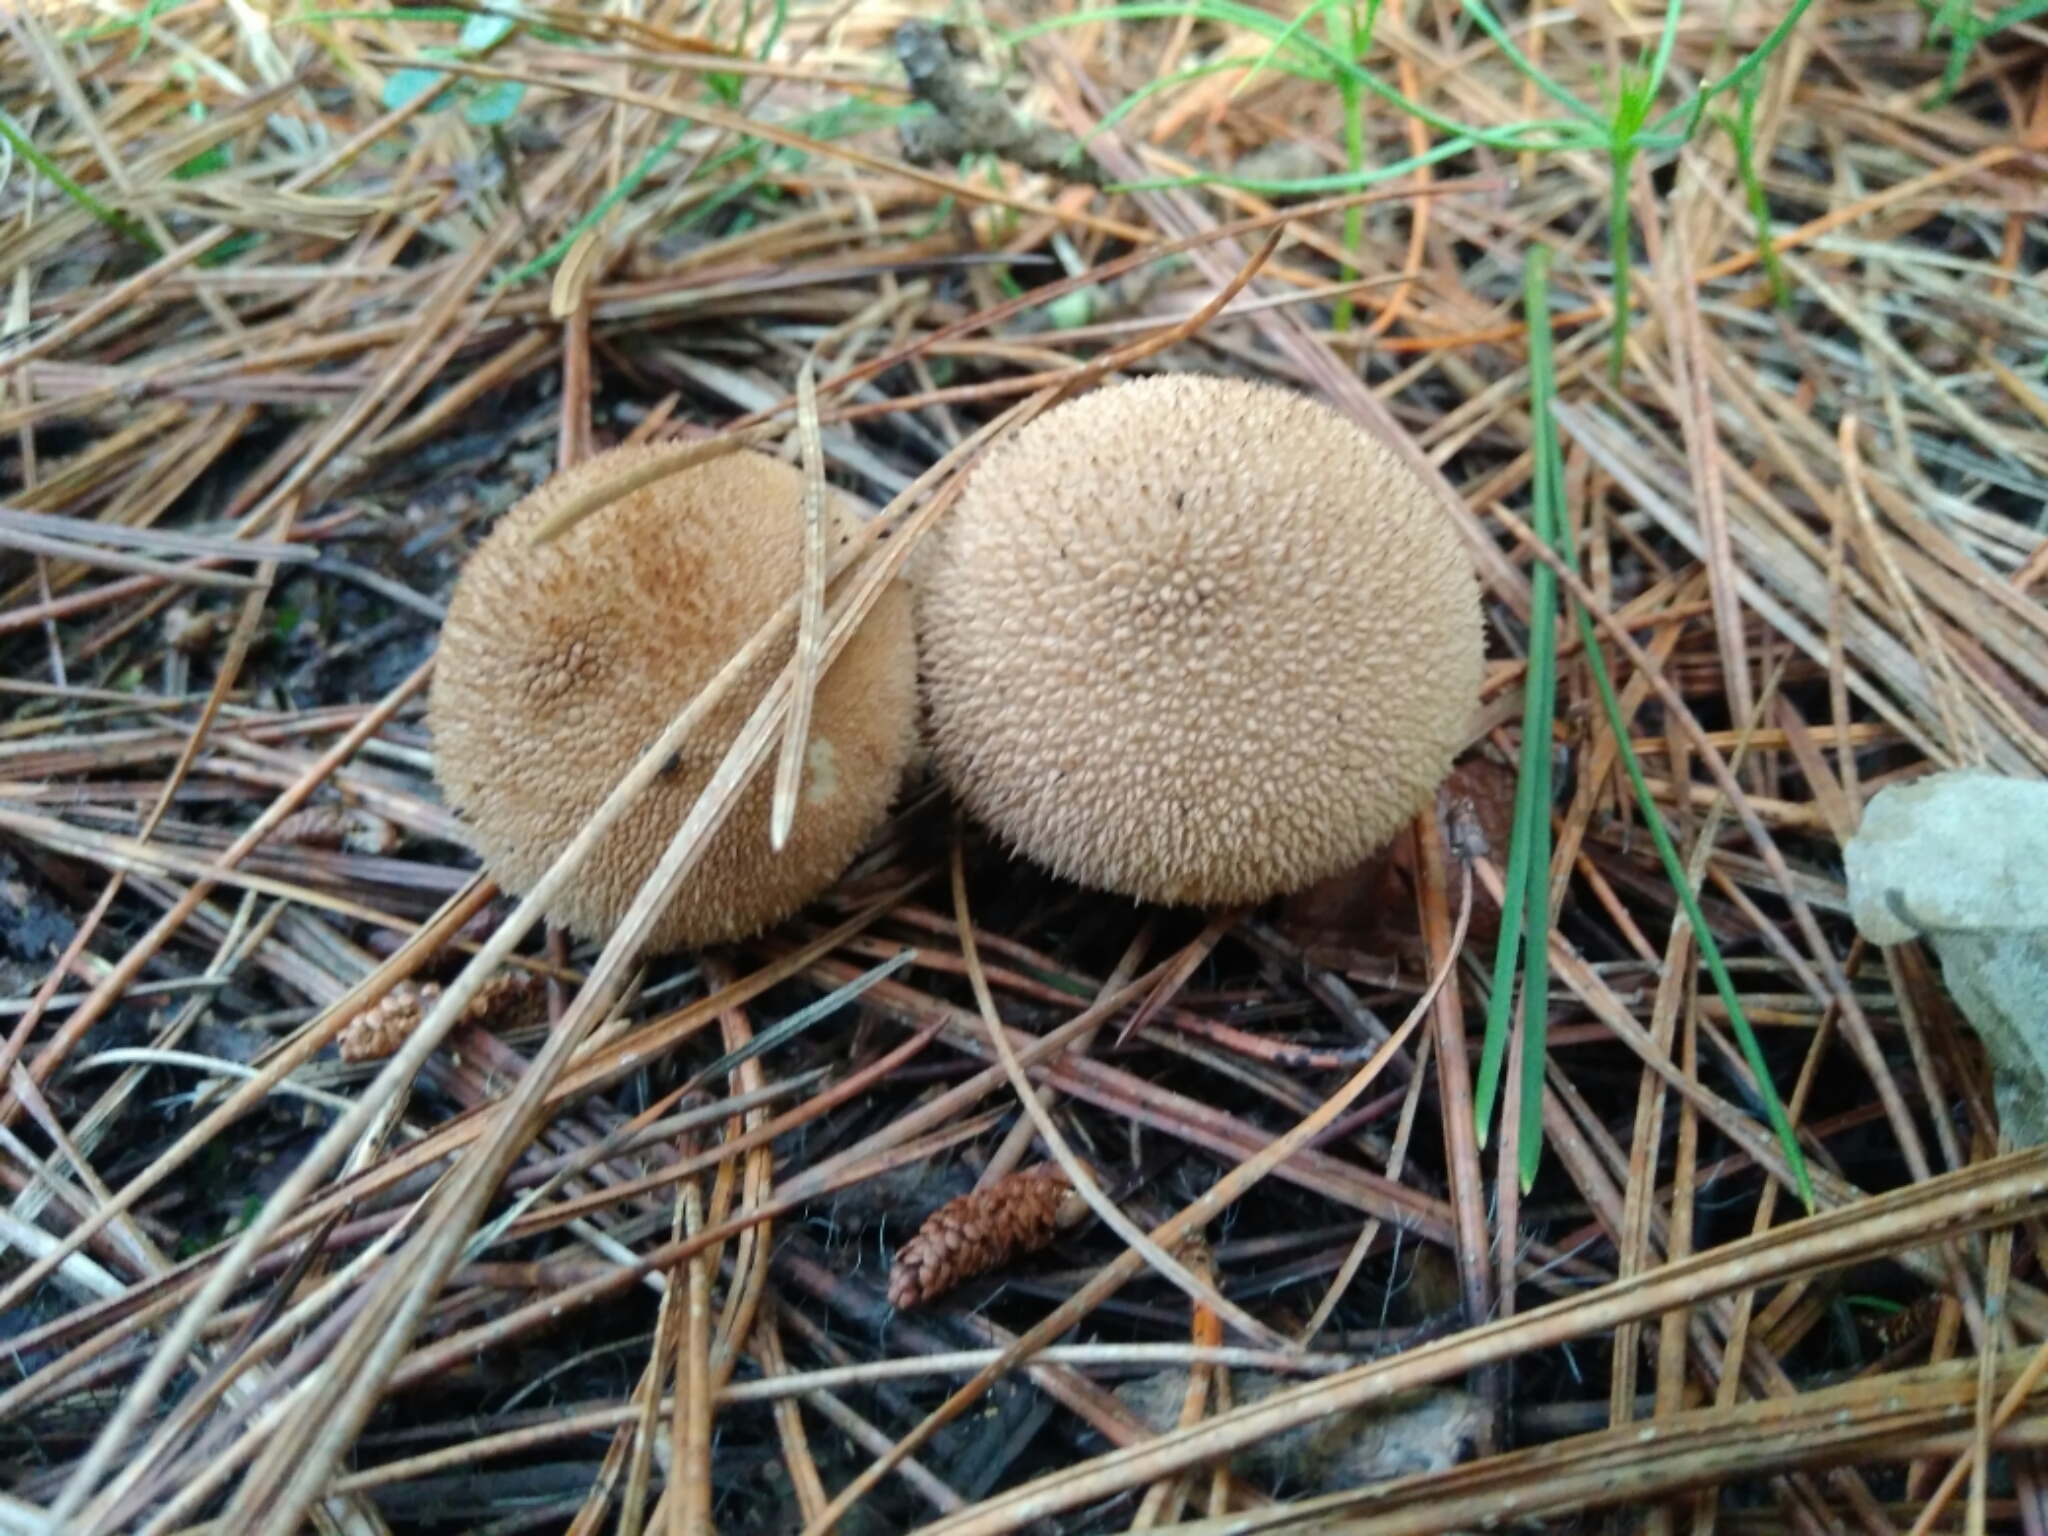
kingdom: Fungi
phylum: Basidiomycota
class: Agaricomycetes
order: Agaricales
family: Lycoperdaceae
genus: Lycoperdon
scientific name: Lycoperdon perlatum
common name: Common puffball
